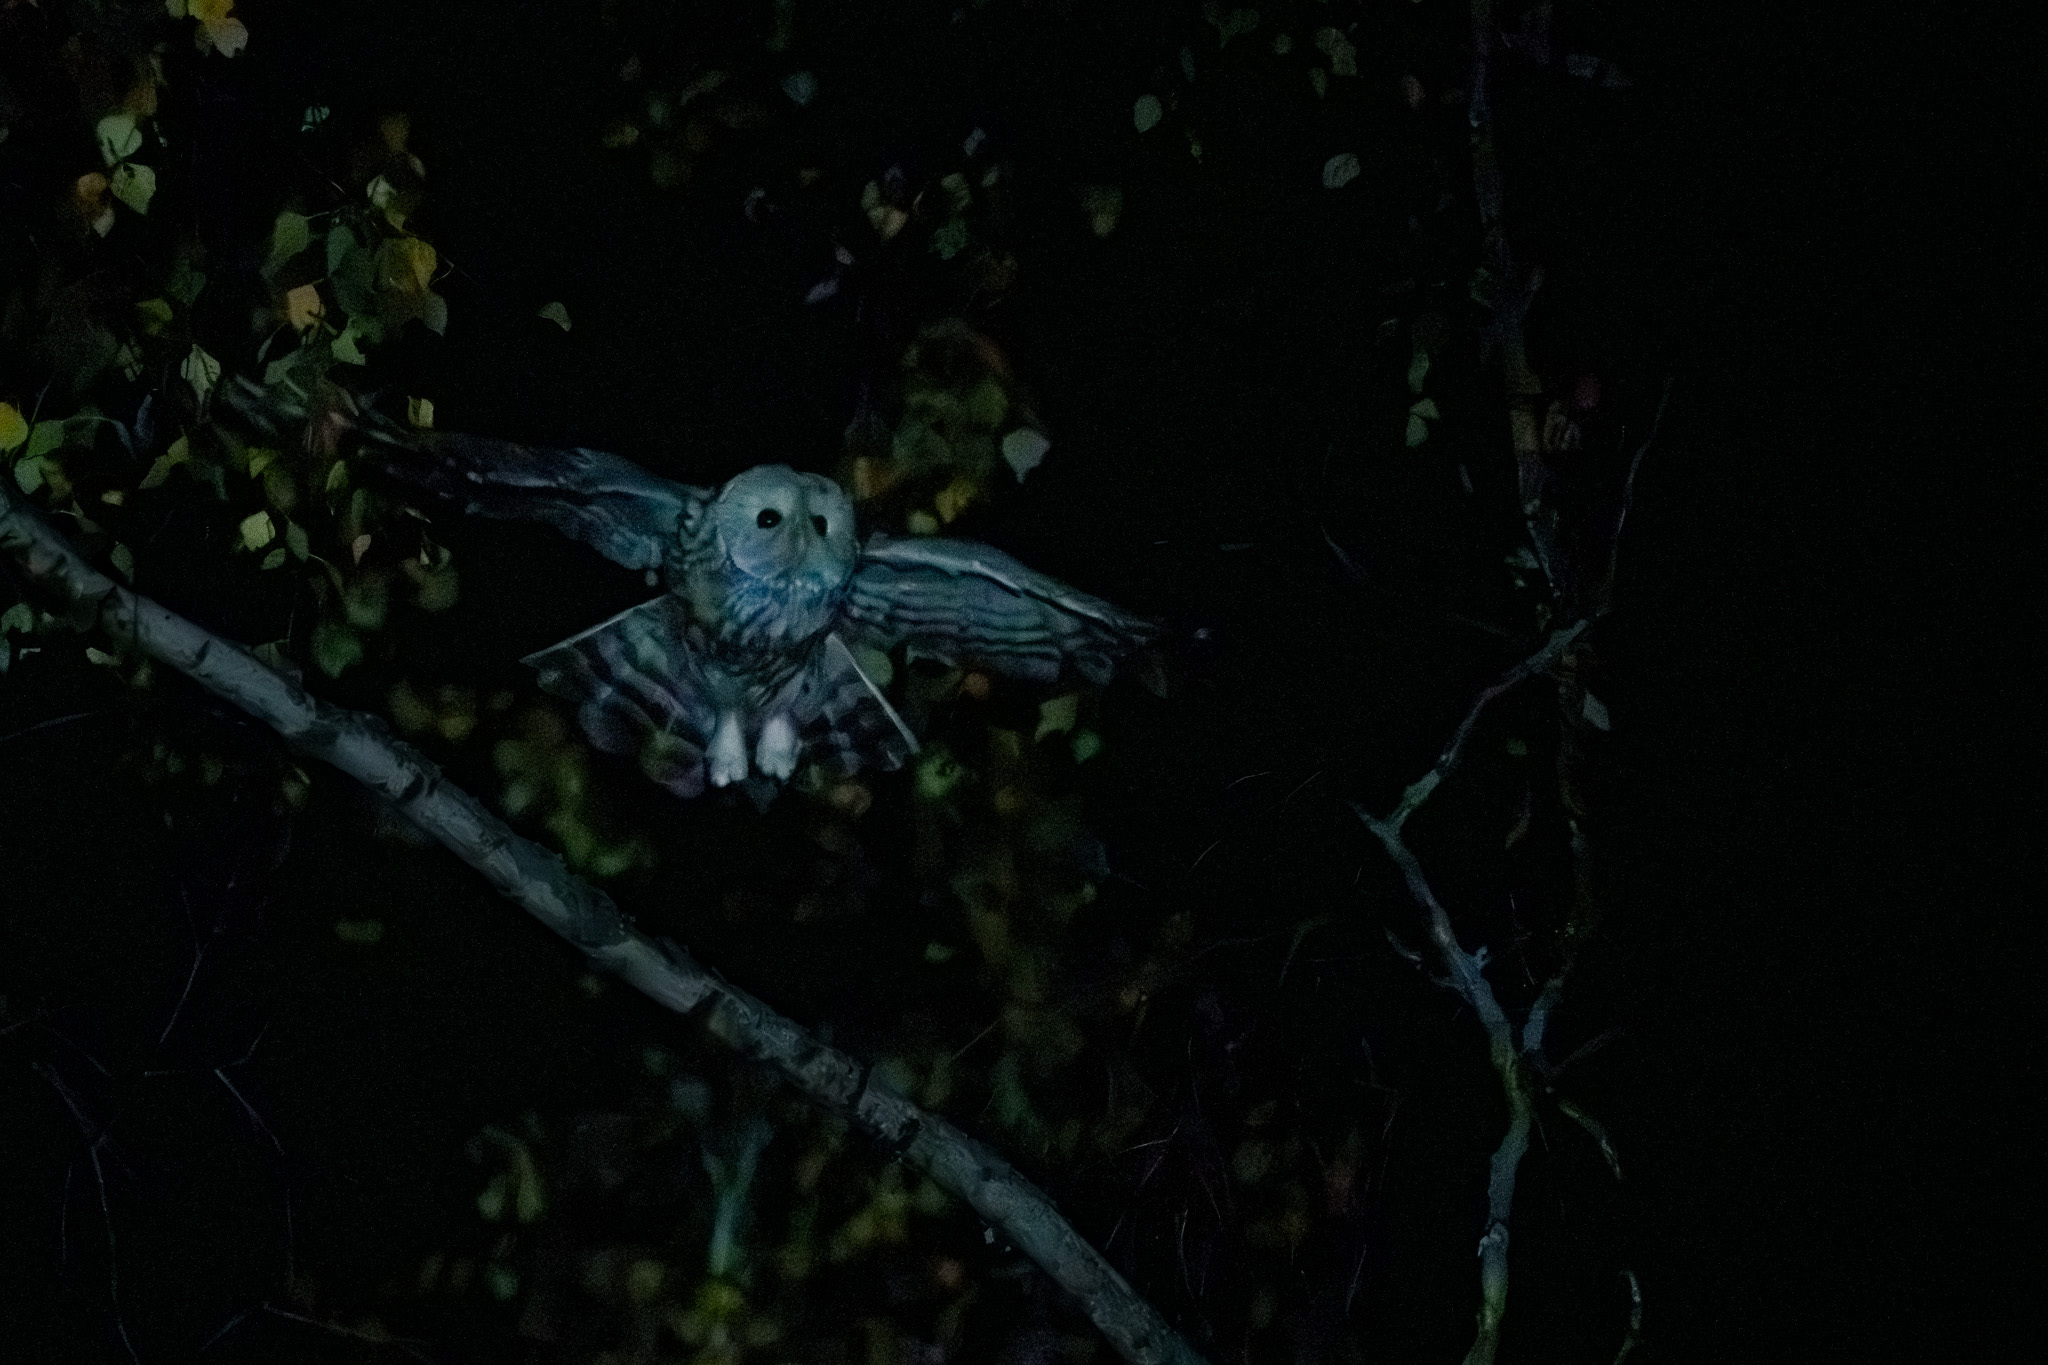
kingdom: Animalia
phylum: Chordata
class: Aves
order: Strigiformes
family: Strigidae
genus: Strix
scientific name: Strix uralensis
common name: Ural owl
